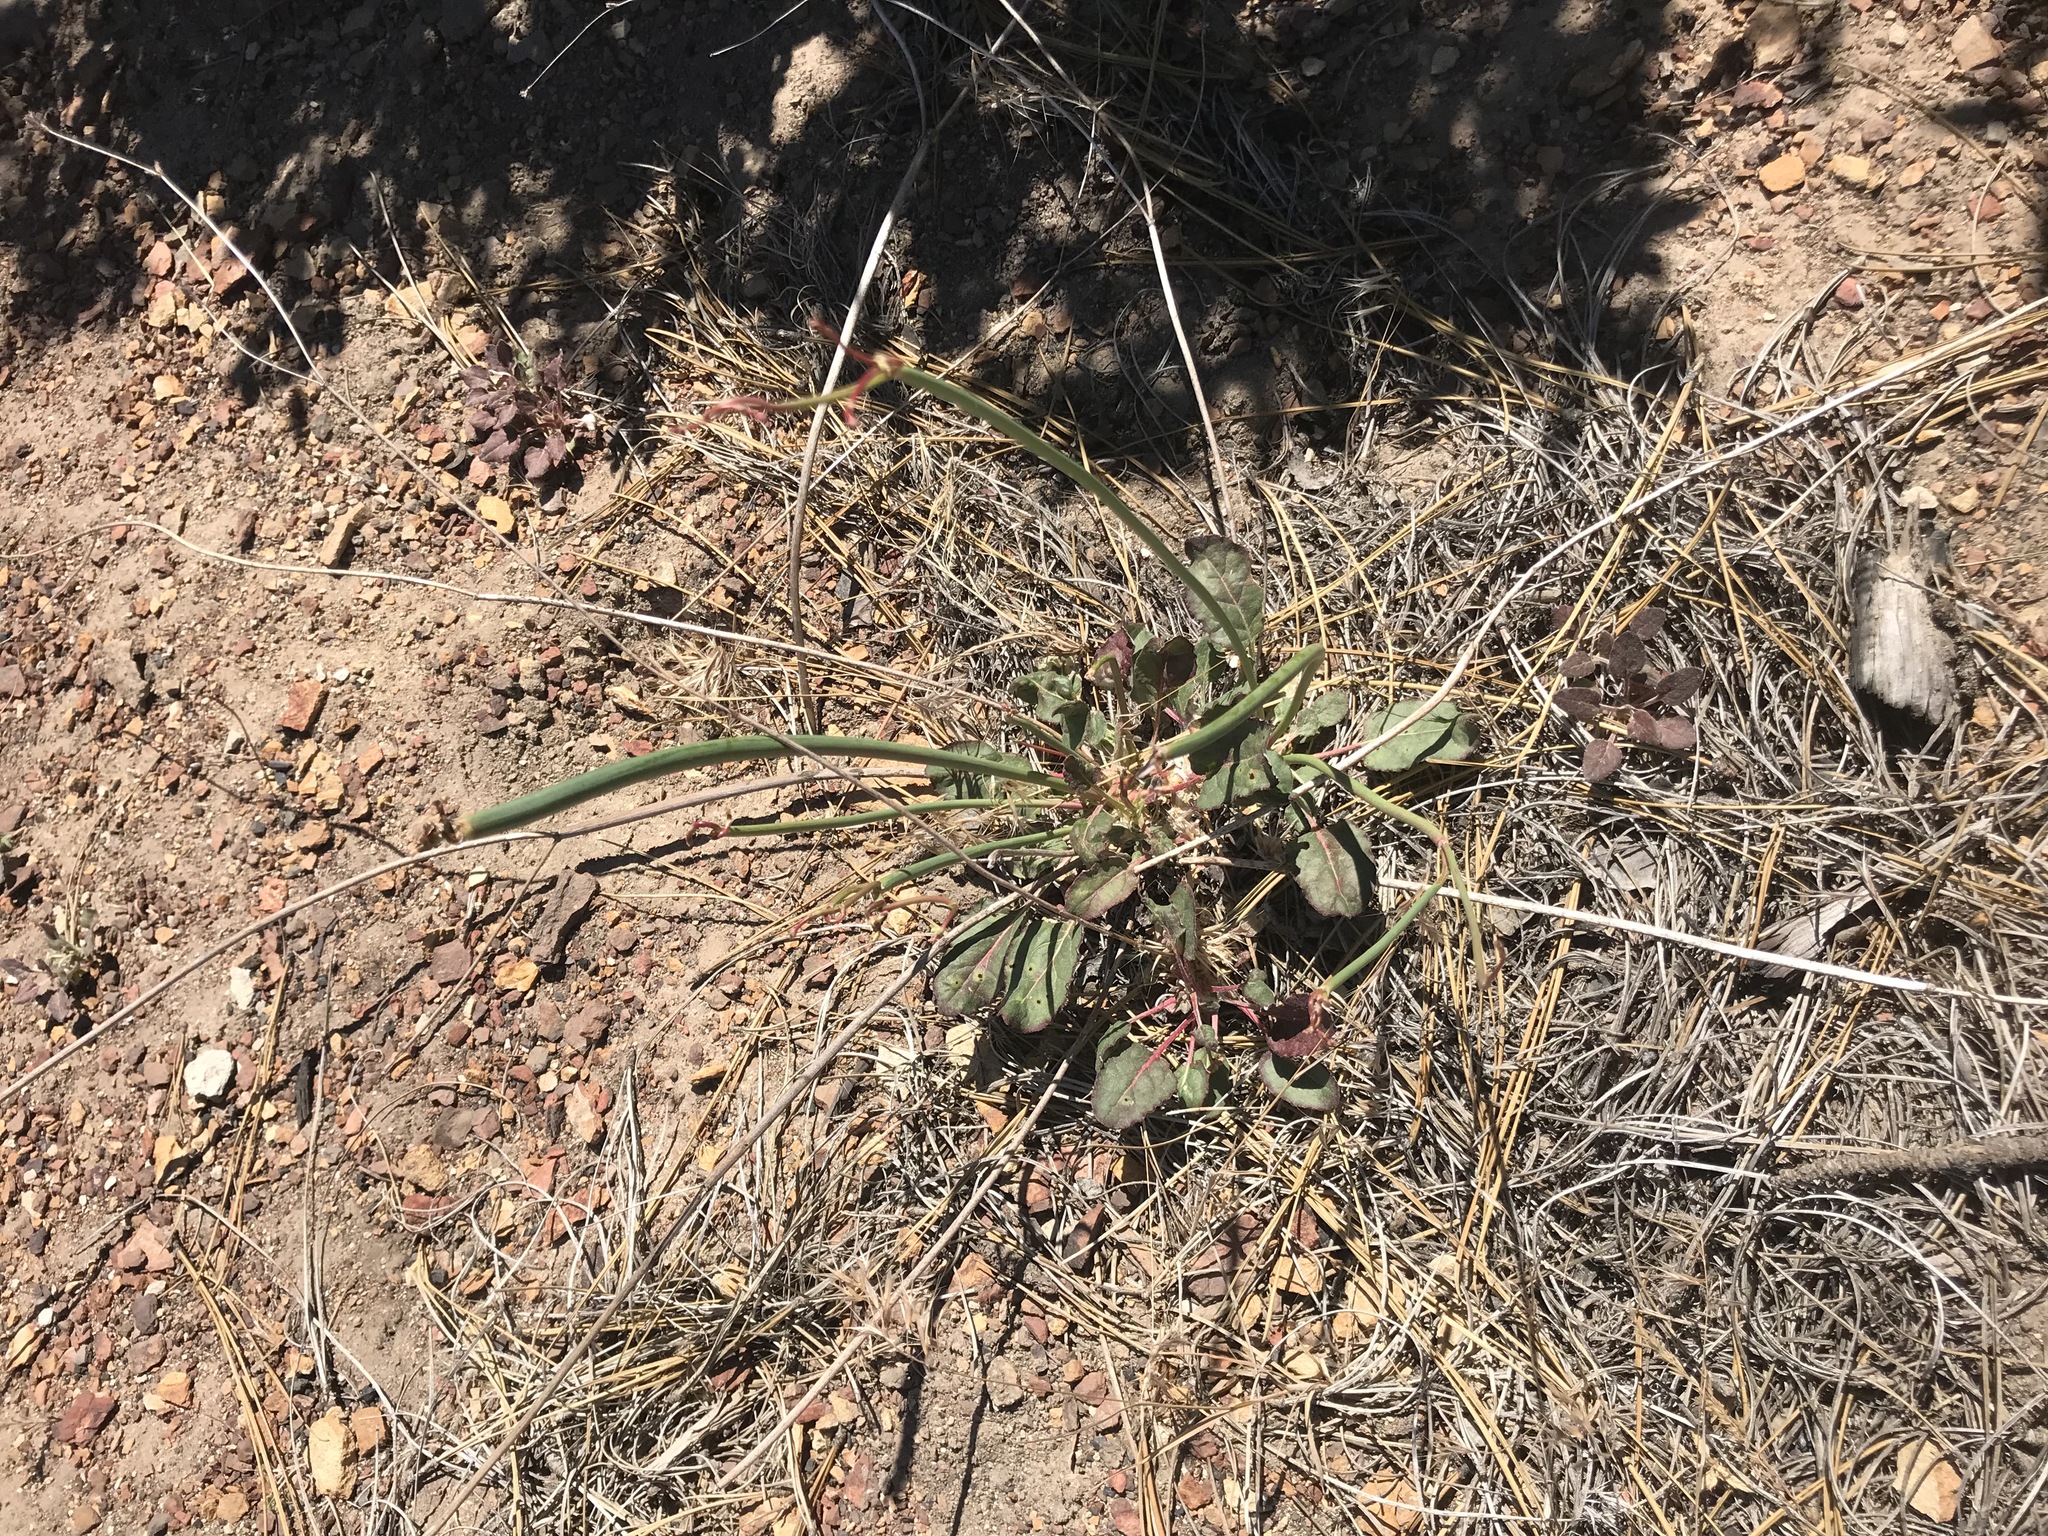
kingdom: Plantae
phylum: Tracheophyta
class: Magnoliopsida
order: Caryophyllales
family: Polygonaceae
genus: Eriogonum
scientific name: Eriogonum nudum
